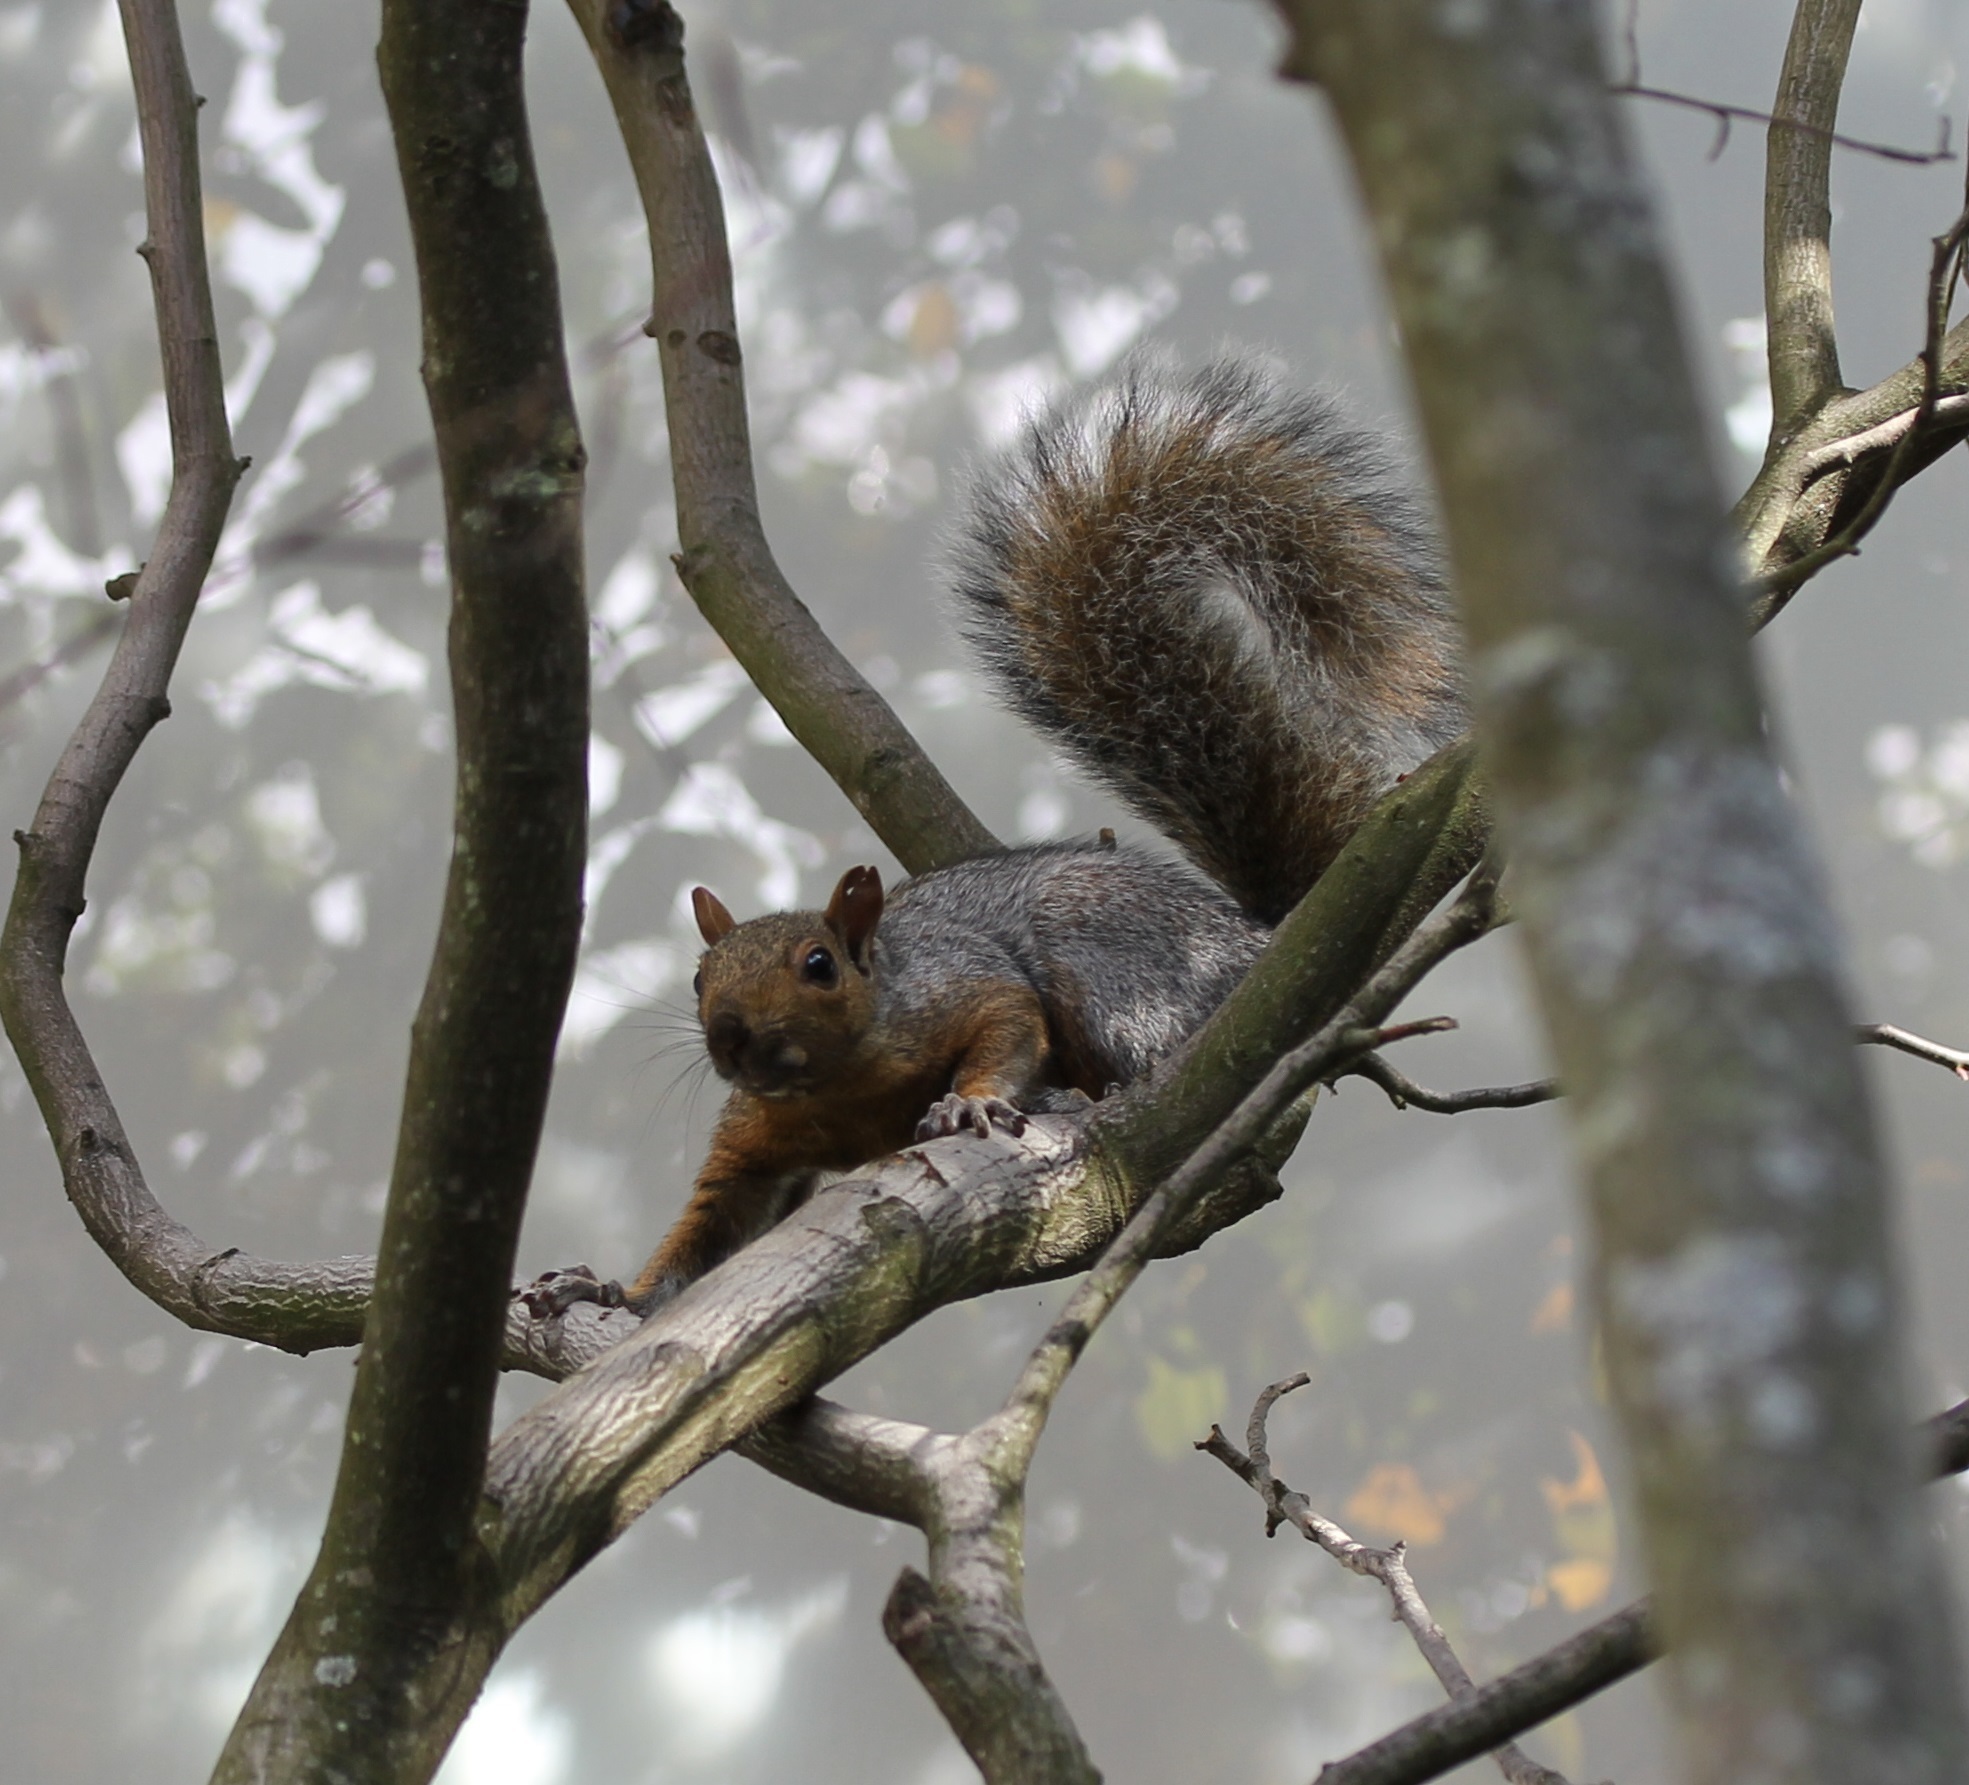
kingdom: Animalia
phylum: Chordata
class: Mammalia
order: Rodentia
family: Sciuridae
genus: Sciurus
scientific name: Sciurus carolinensis
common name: Eastern gray squirrel
